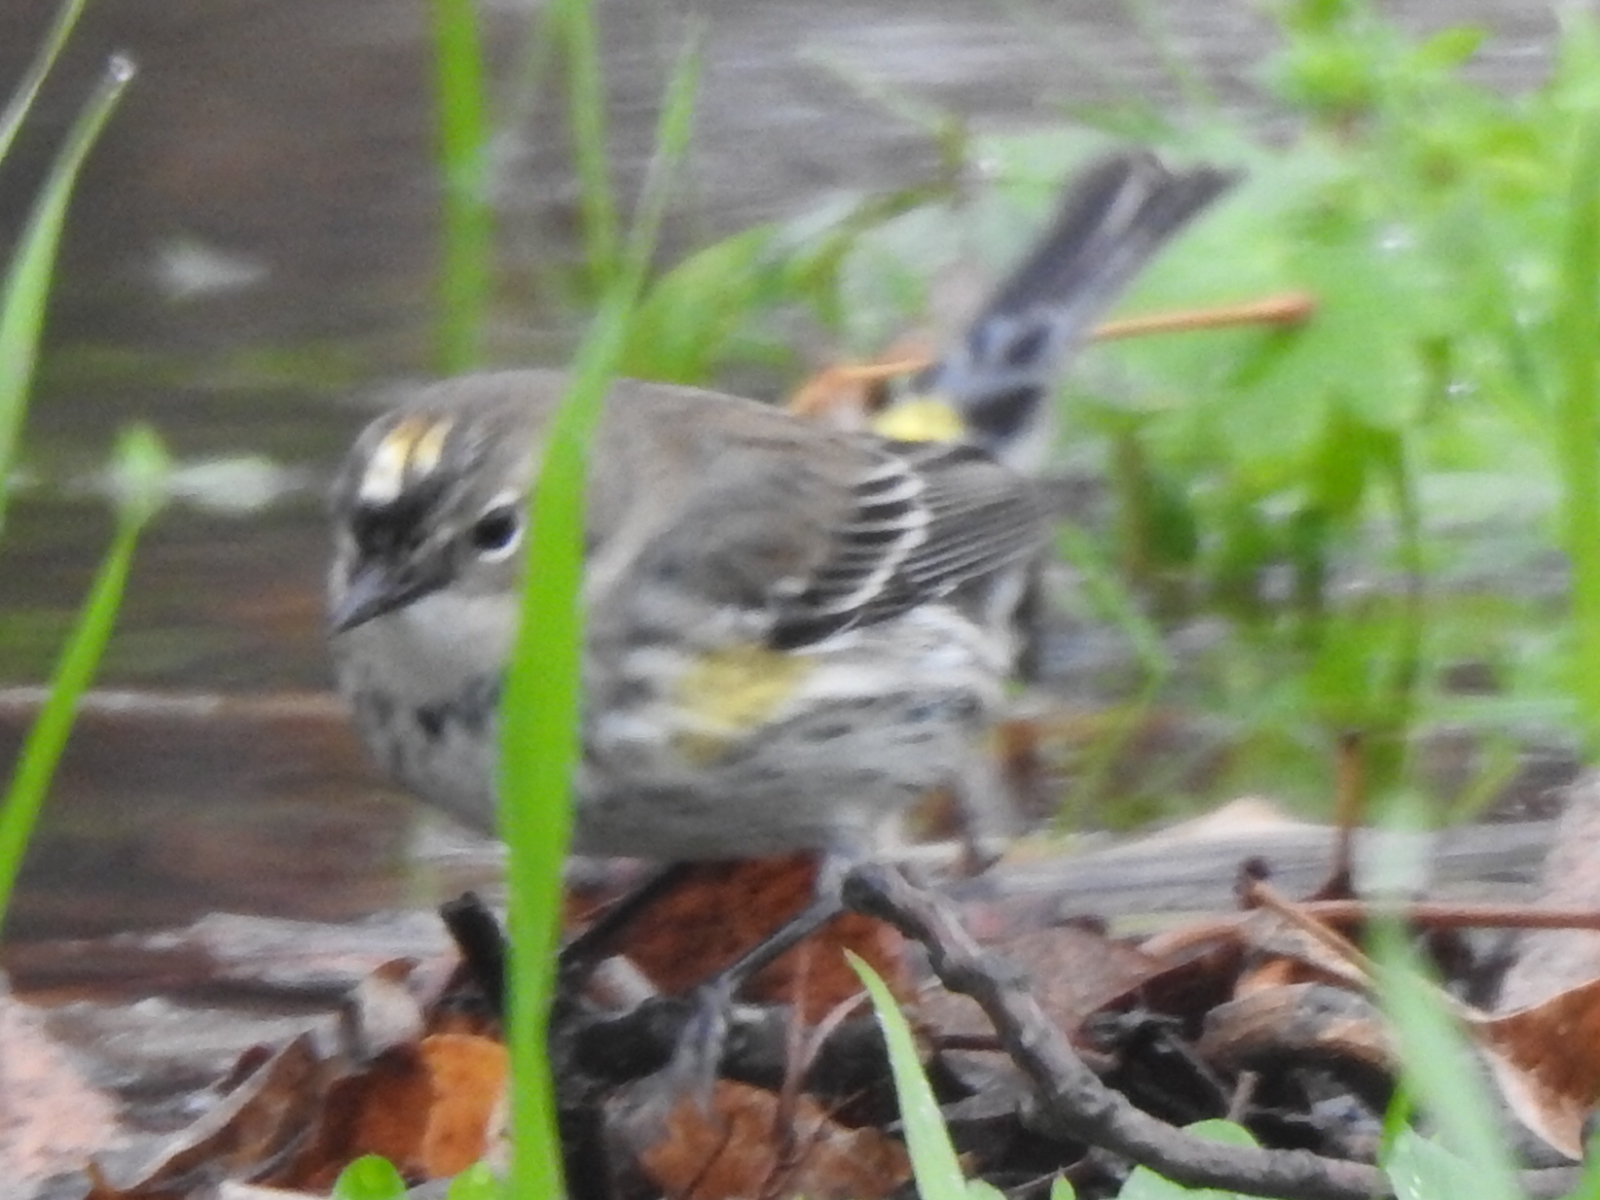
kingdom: Animalia
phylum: Chordata
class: Aves
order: Passeriformes
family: Parulidae
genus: Setophaga
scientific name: Setophaga coronata
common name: Myrtle warbler
